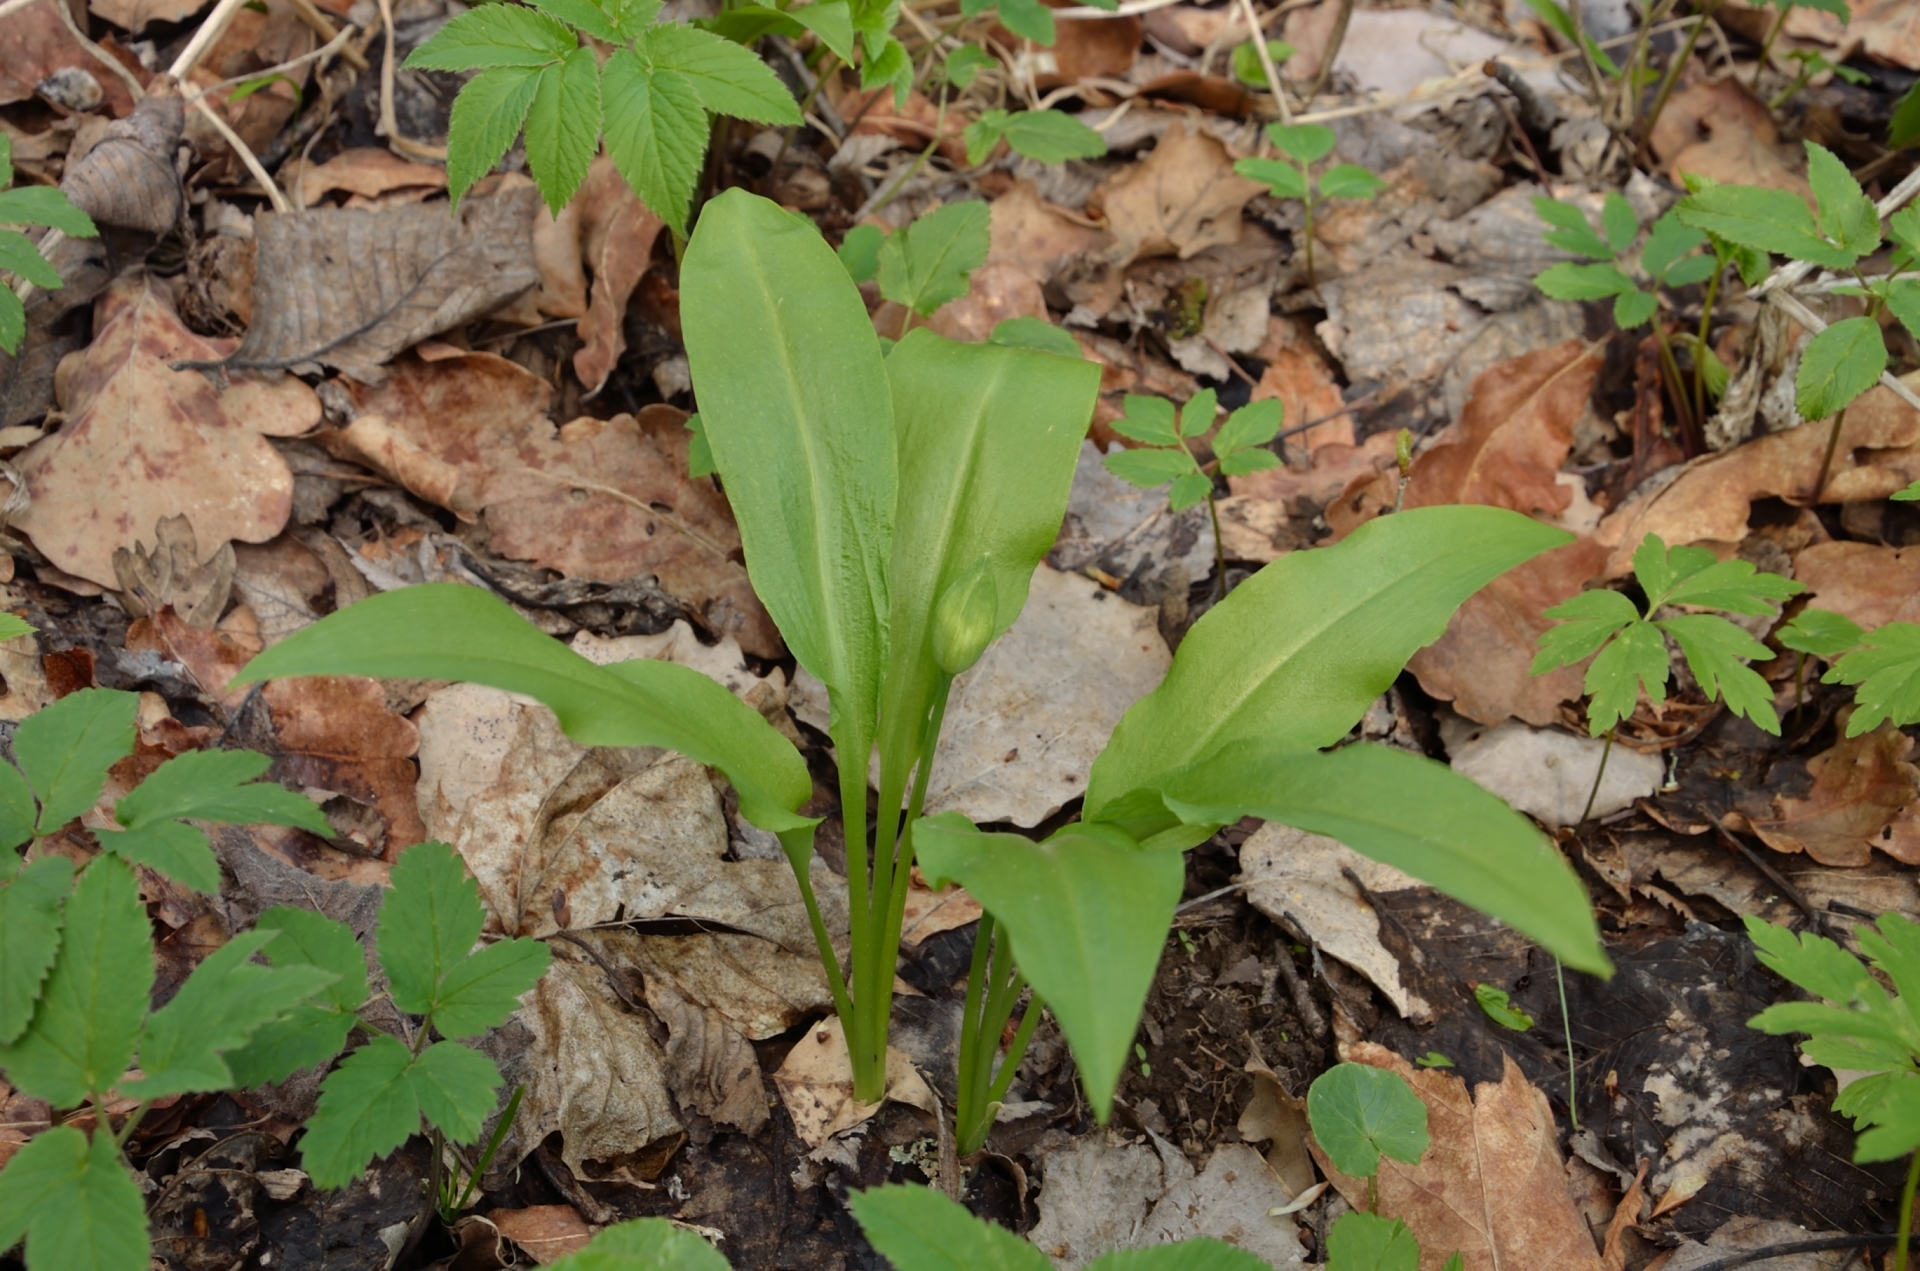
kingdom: Plantae
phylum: Tracheophyta
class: Liliopsida
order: Asparagales
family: Amaryllidaceae
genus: Allium
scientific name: Allium ursinum
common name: Ramsons
